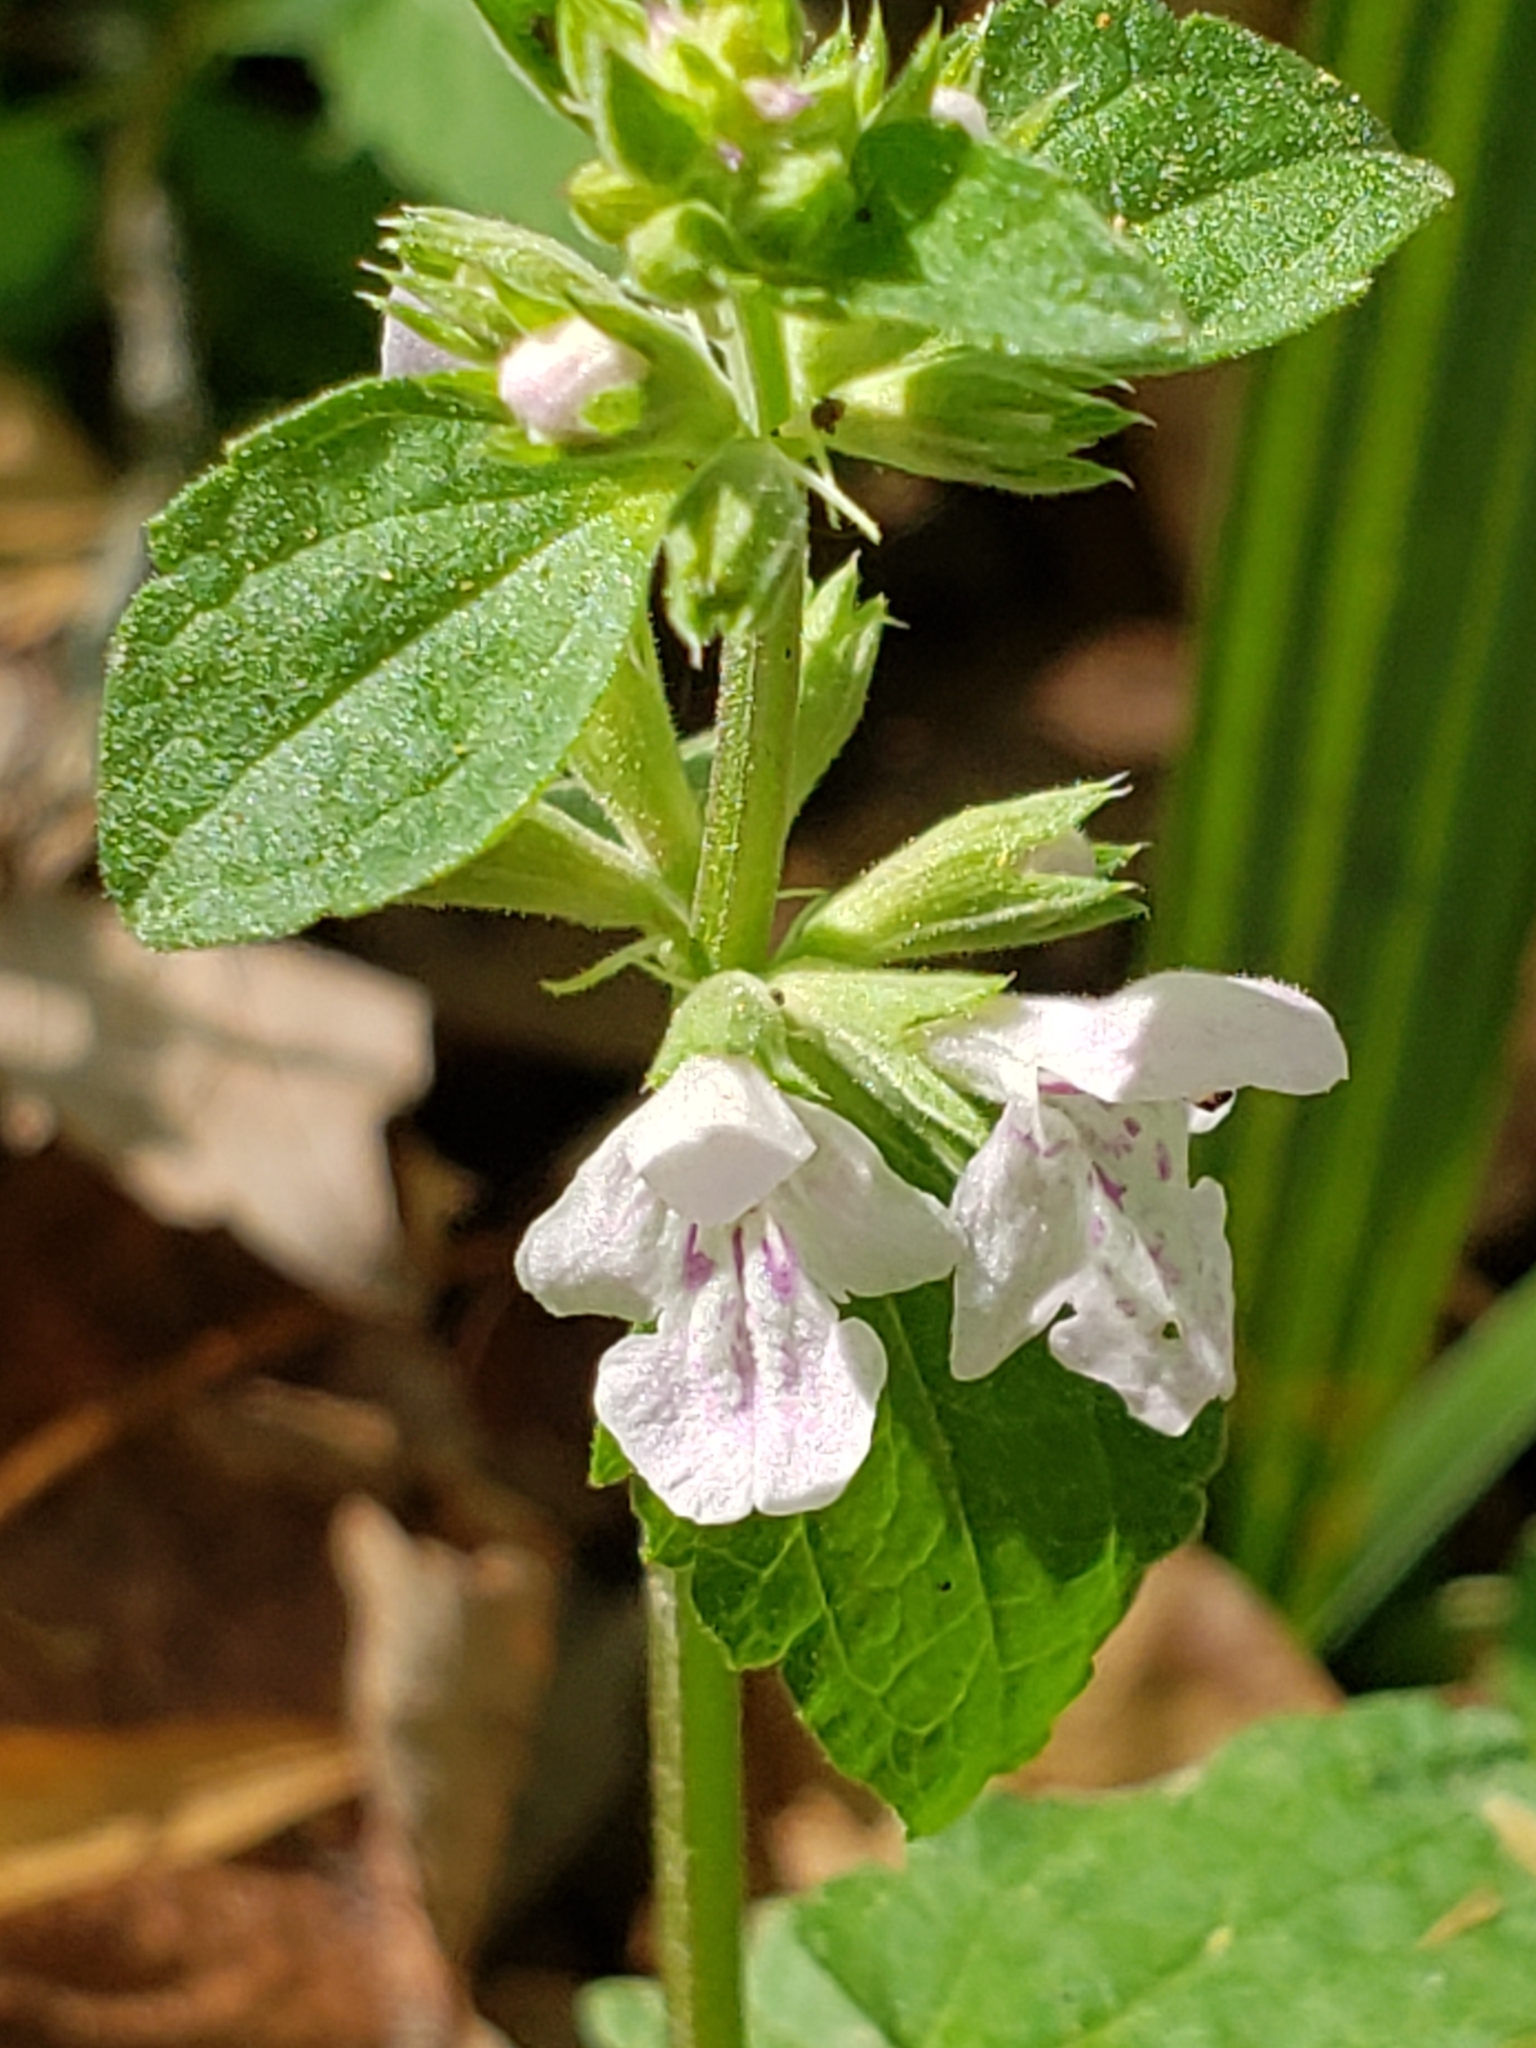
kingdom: Plantae
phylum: Tracheophyta
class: Magnoliopsida
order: Lamiales
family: Lamiaceae
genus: Stachys
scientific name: Stachys floridana
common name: Florida betony
